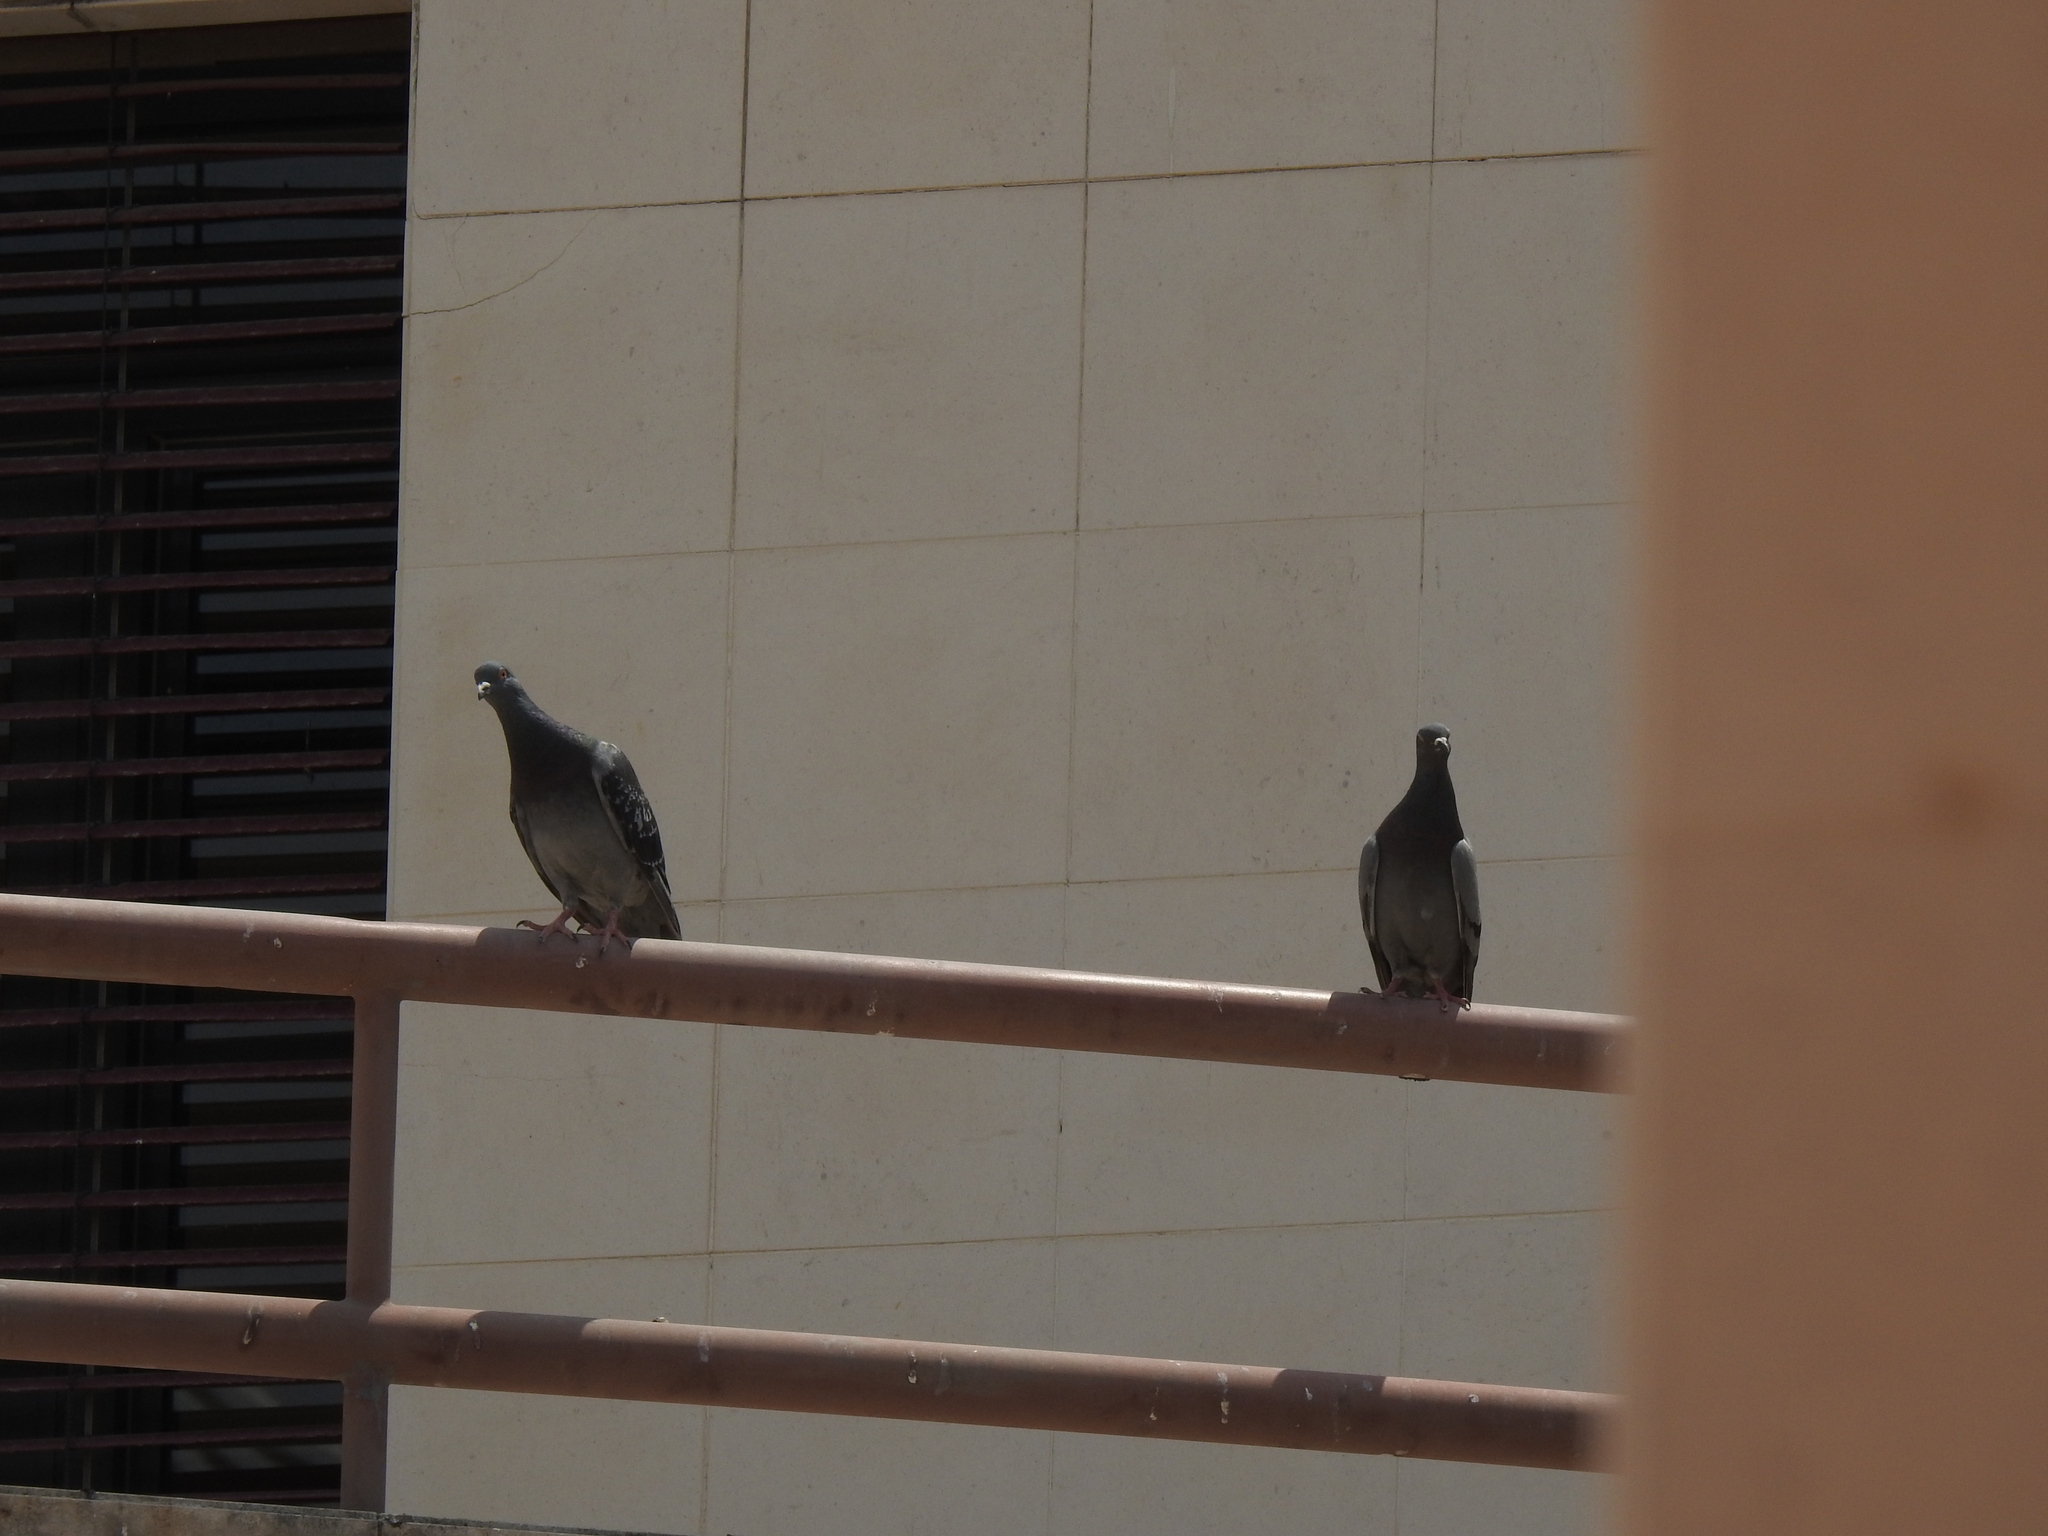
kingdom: Animalia
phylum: Chordata
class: Aves
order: Columbiformes
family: Columbidae
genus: Columba
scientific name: Columba livia
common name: Rock pigeon
